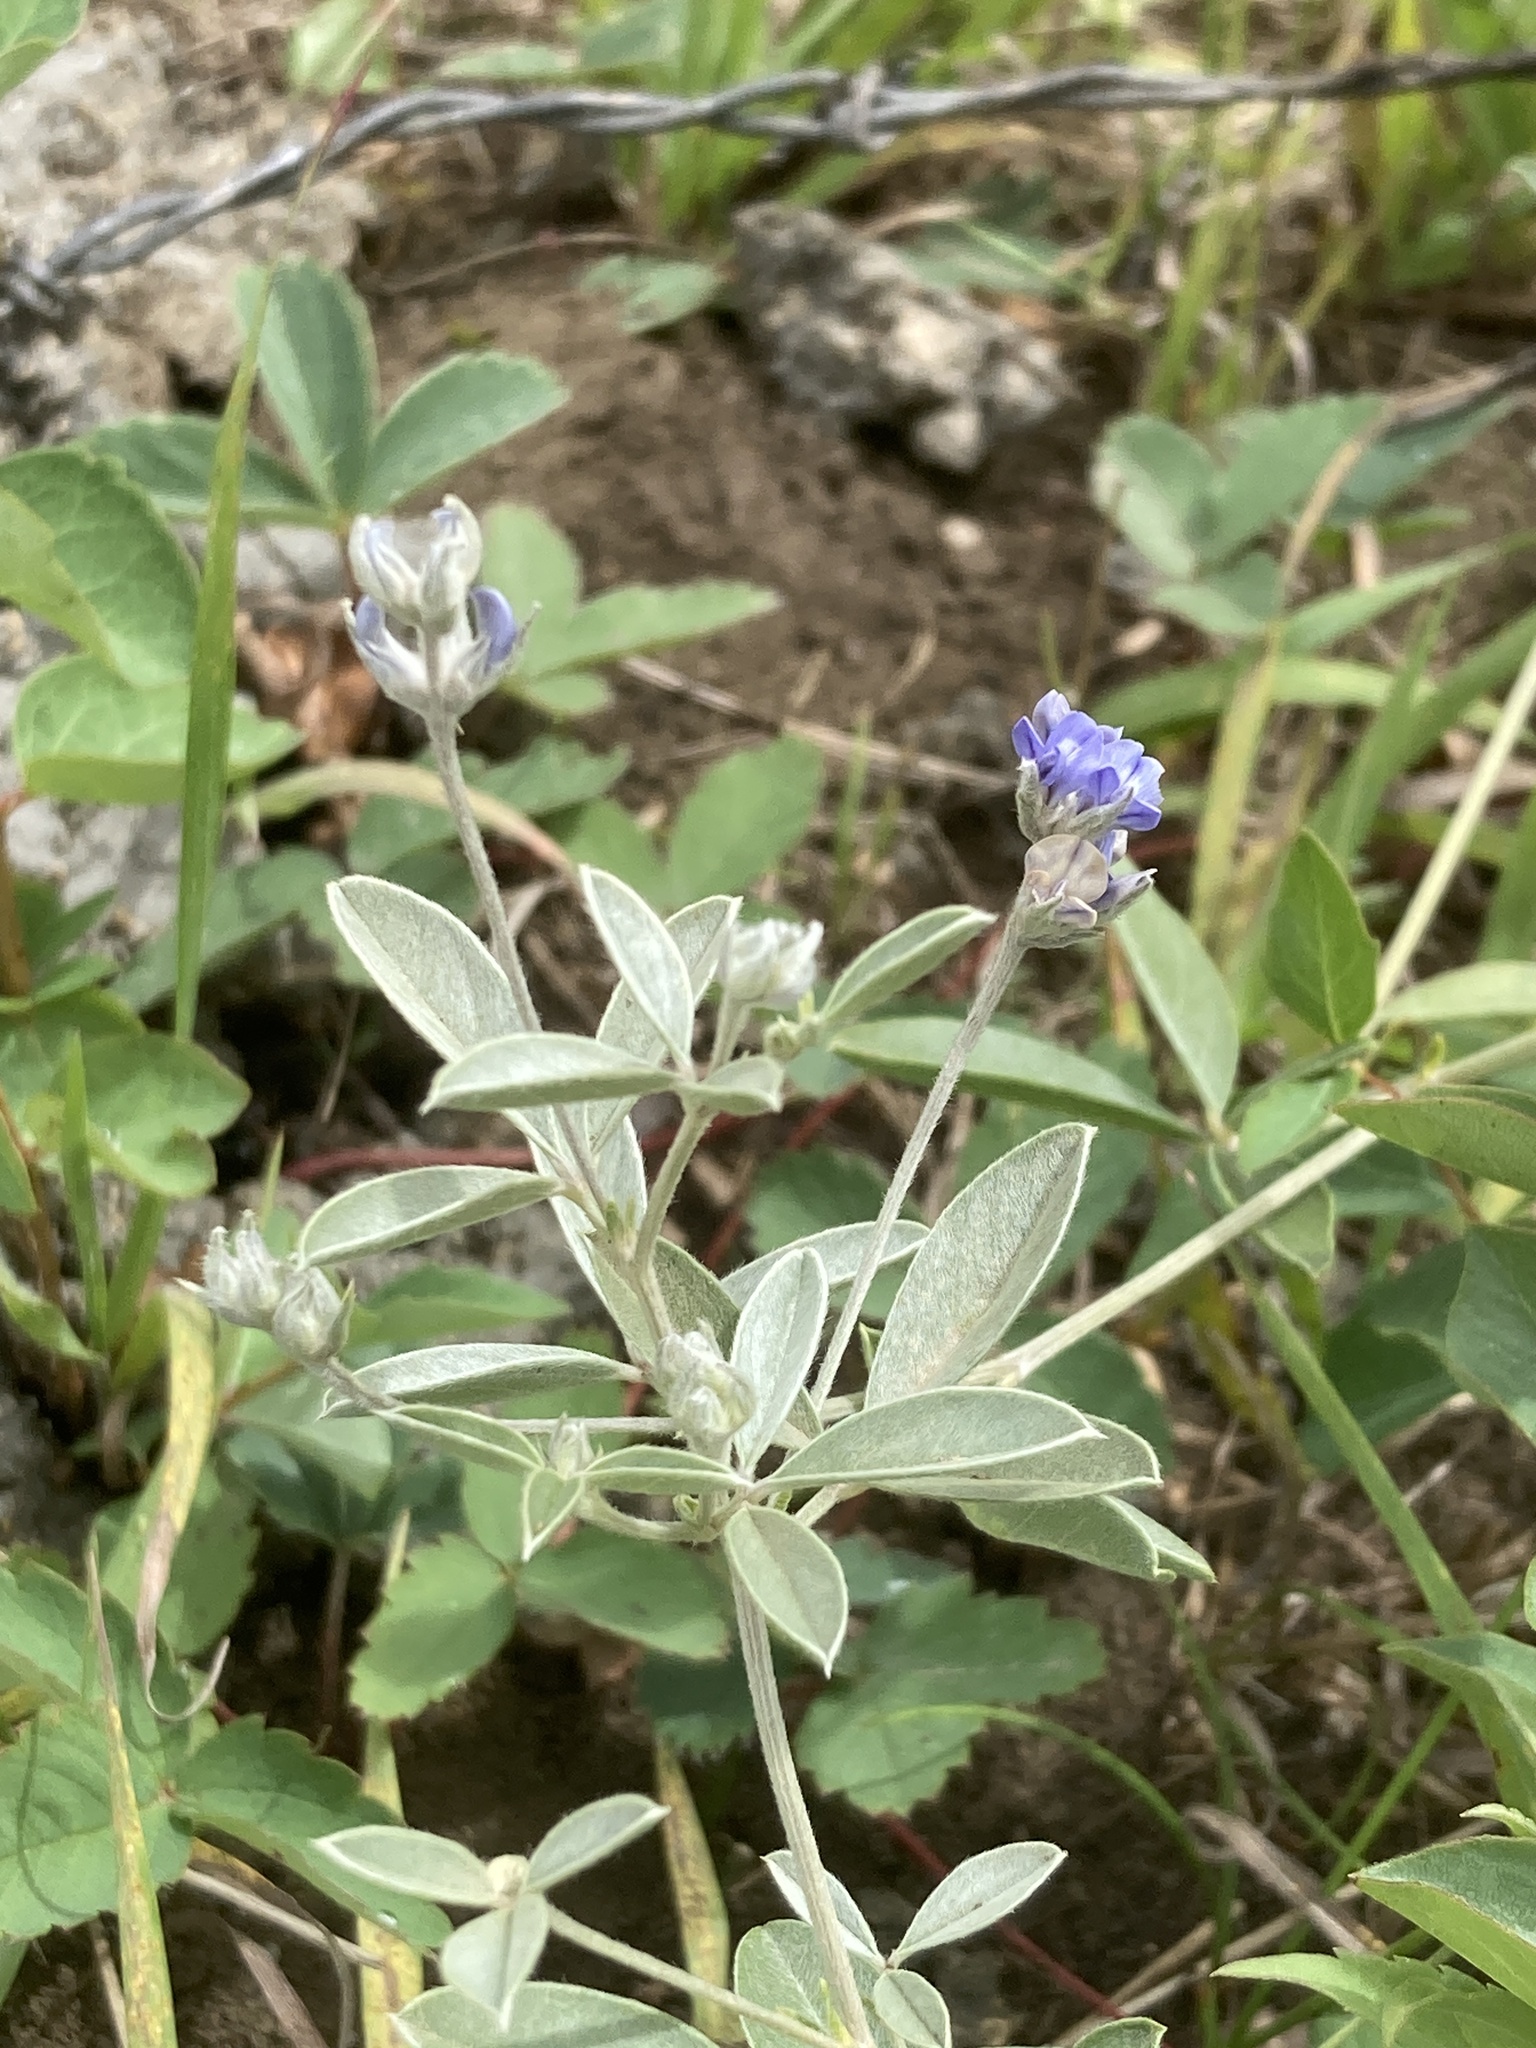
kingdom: Plantae
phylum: Tracheophyta
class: Magnoliopsida
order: Fabales
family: Fabaceae
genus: Pediomelum
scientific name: Pediomelum argophyllum
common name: Silver-leaved indian breadroot
